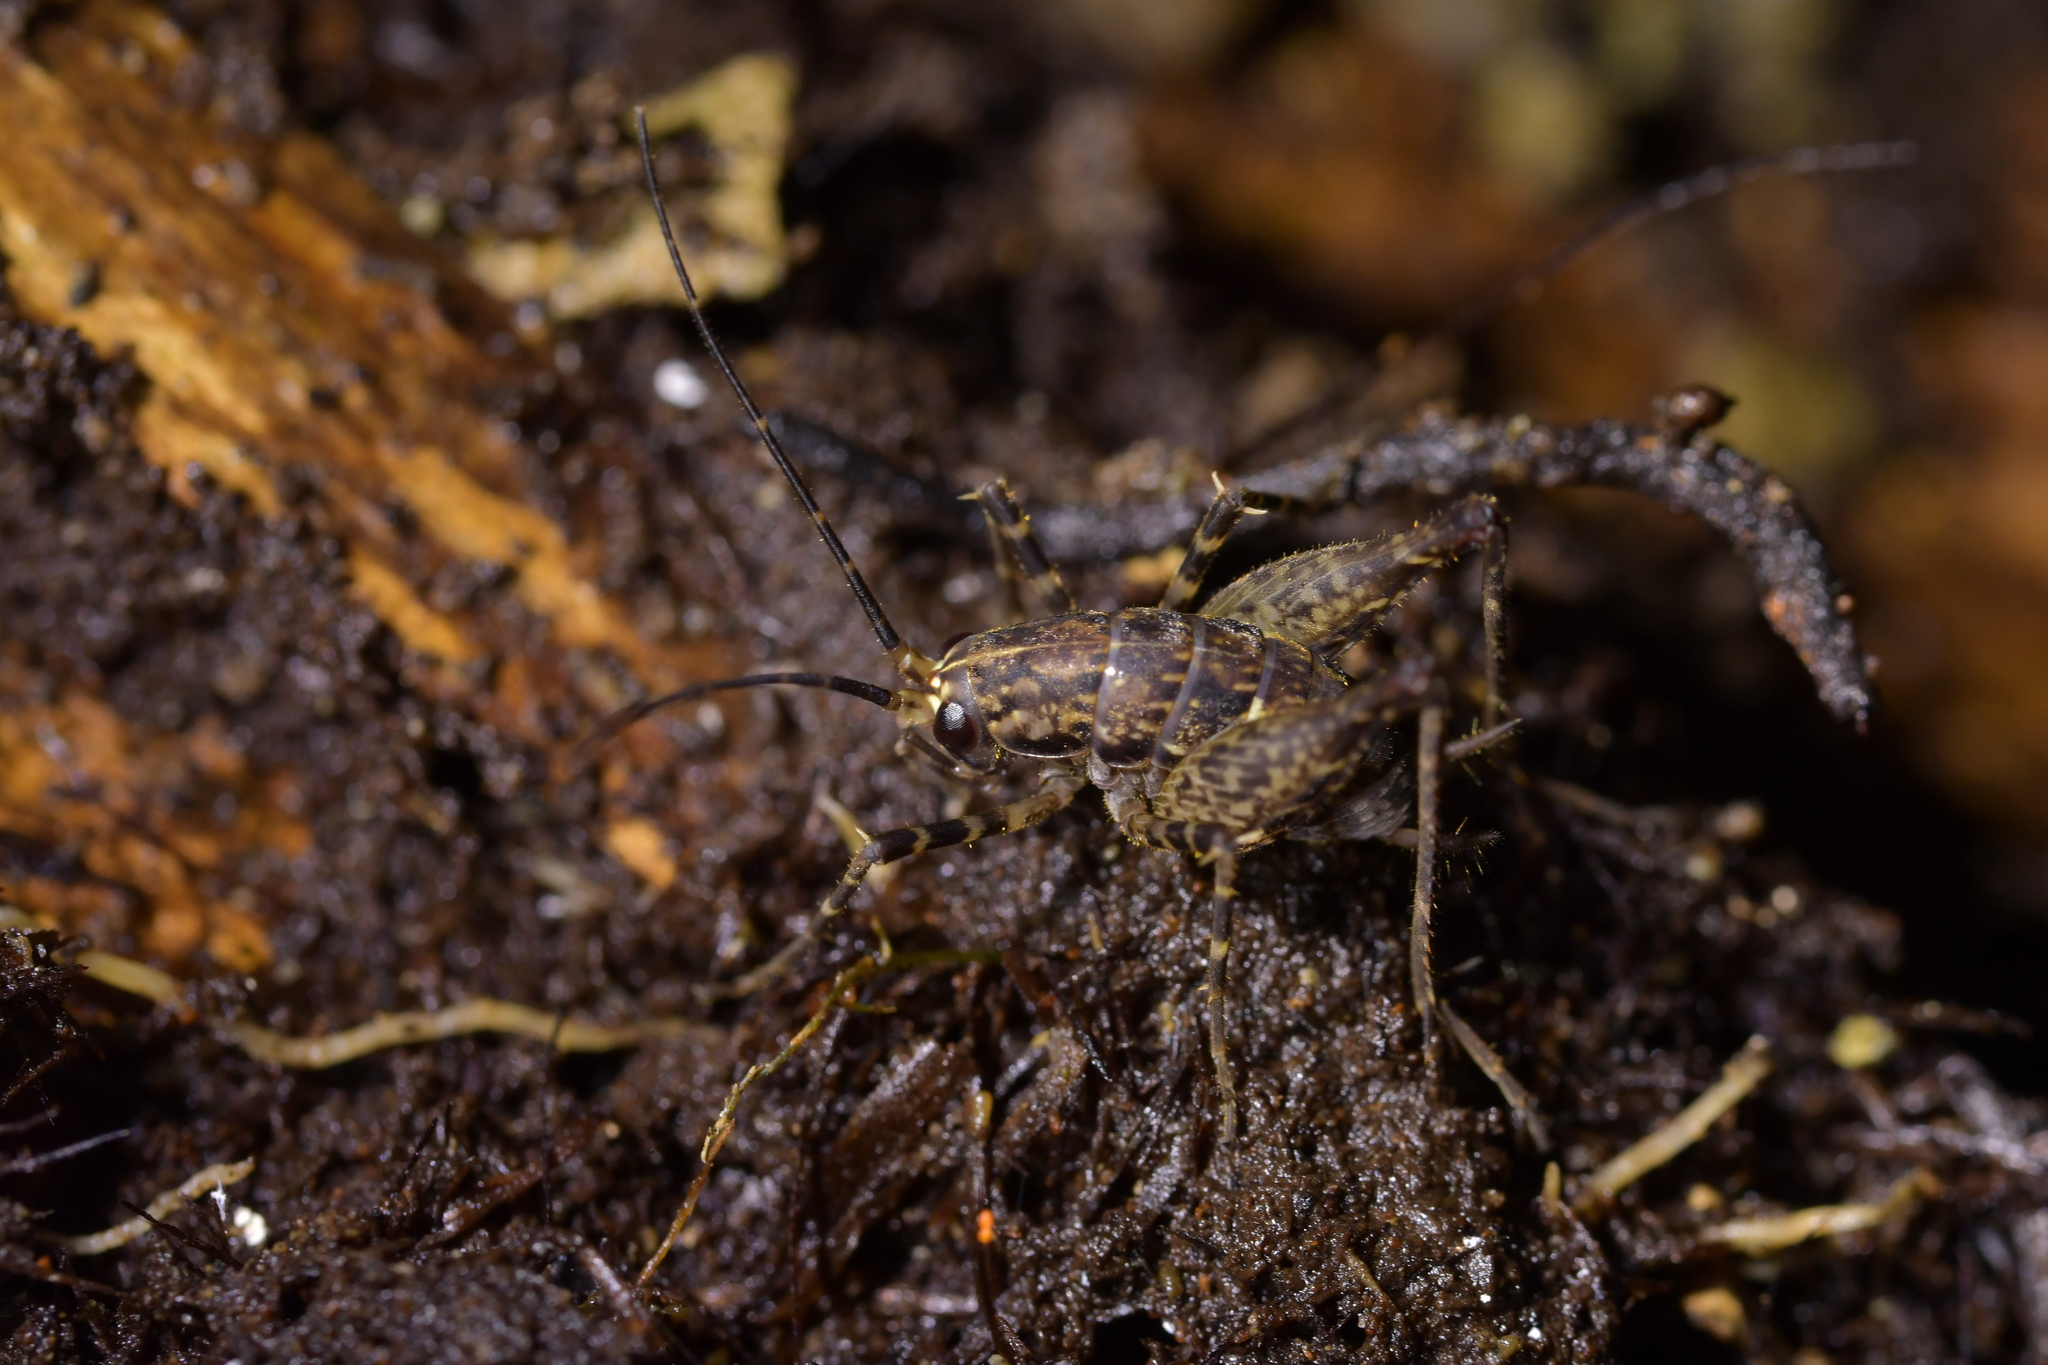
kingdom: Animalia
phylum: Arthropoda
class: Insecta
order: Orthoptera
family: Rhaphidophoridae
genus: Pleioplectron
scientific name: Pleioplectron hudsoni
